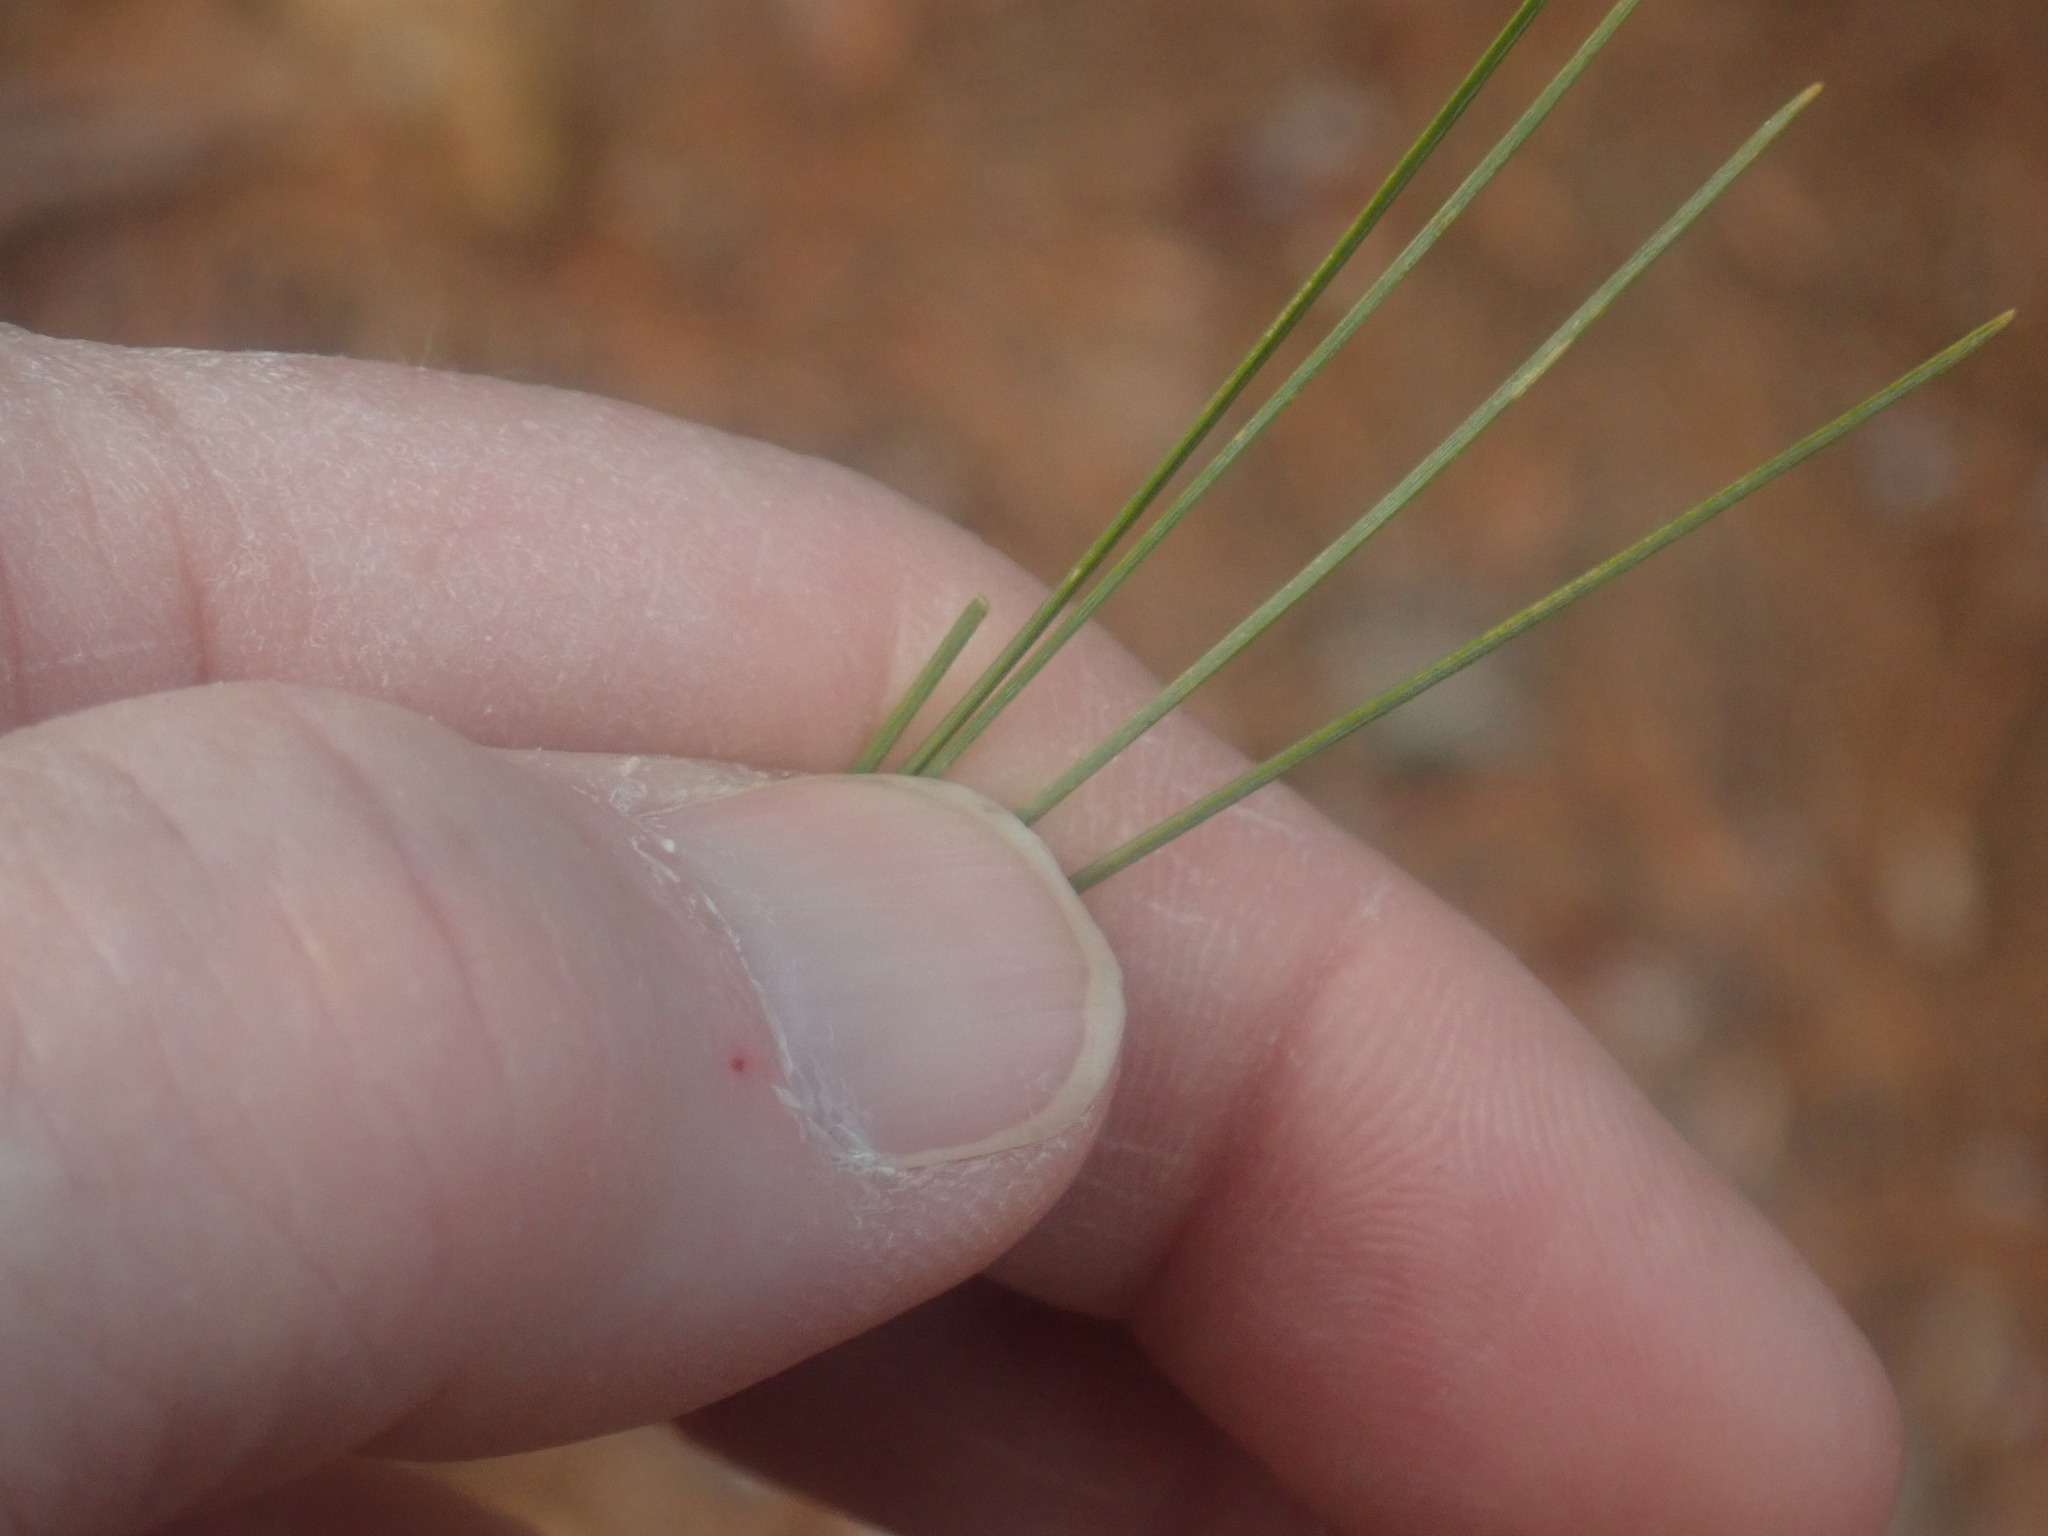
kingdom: Plantae
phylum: Tracheophyta
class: Pinopsida
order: Pinales
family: Pinaceae
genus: Pinus
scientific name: Pinus strobus
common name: Weymouth pine
